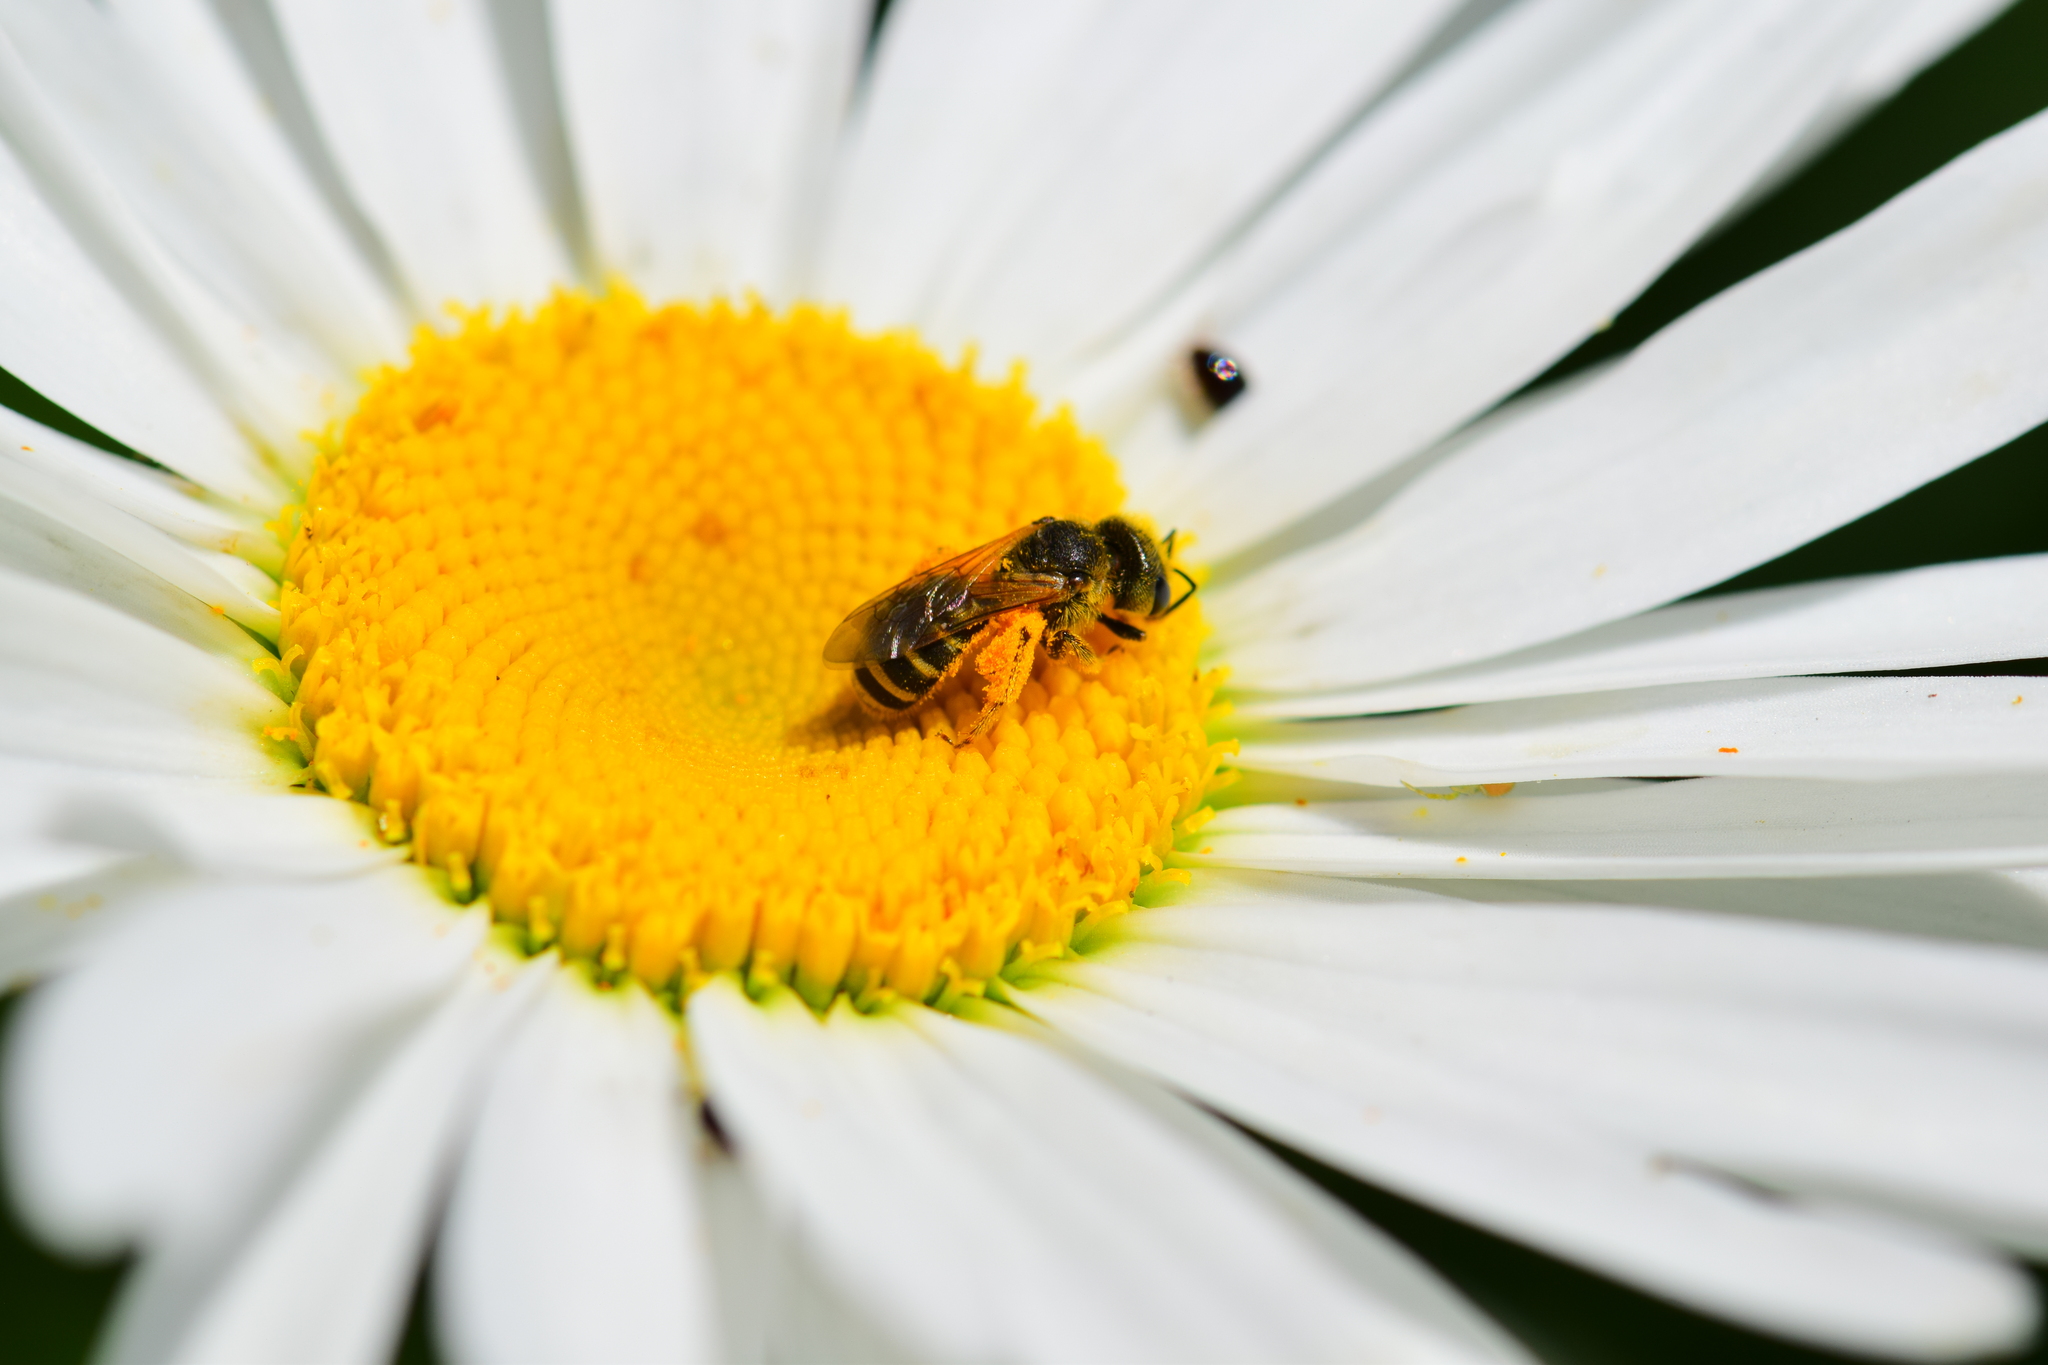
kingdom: Animalia
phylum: Arthropoda
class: Insecta
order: Hymenoptera
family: Halictidae
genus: Halictus
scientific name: Halictus ligatus
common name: Ligated furrow bee
